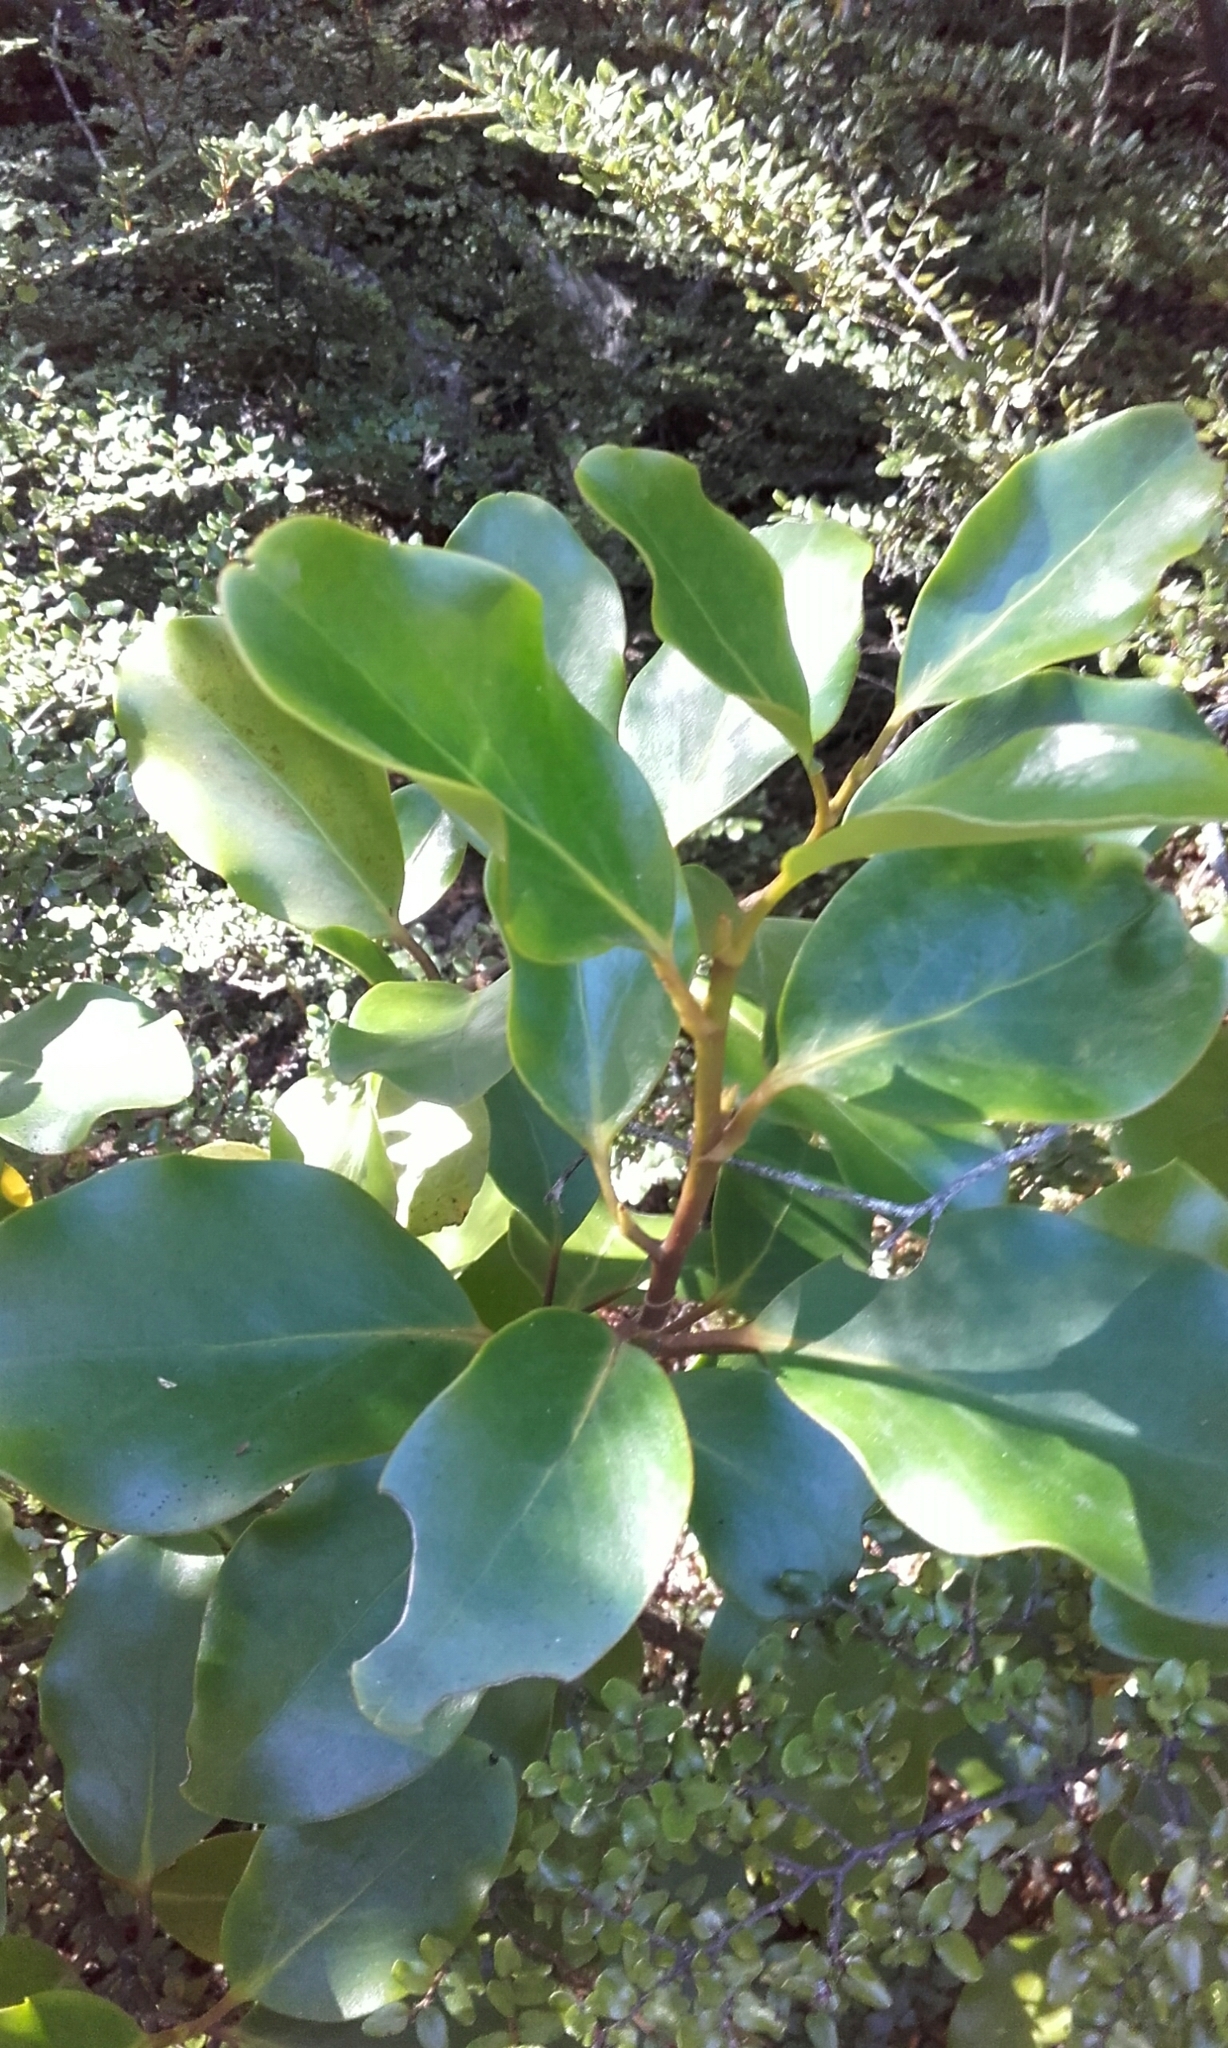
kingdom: Plantae
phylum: Tracheophyta
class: Magnoliopsida
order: Apiales
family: Griseliniaceae
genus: Griselinia
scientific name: Griselinia littoralis
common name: New zealand broadleaf
